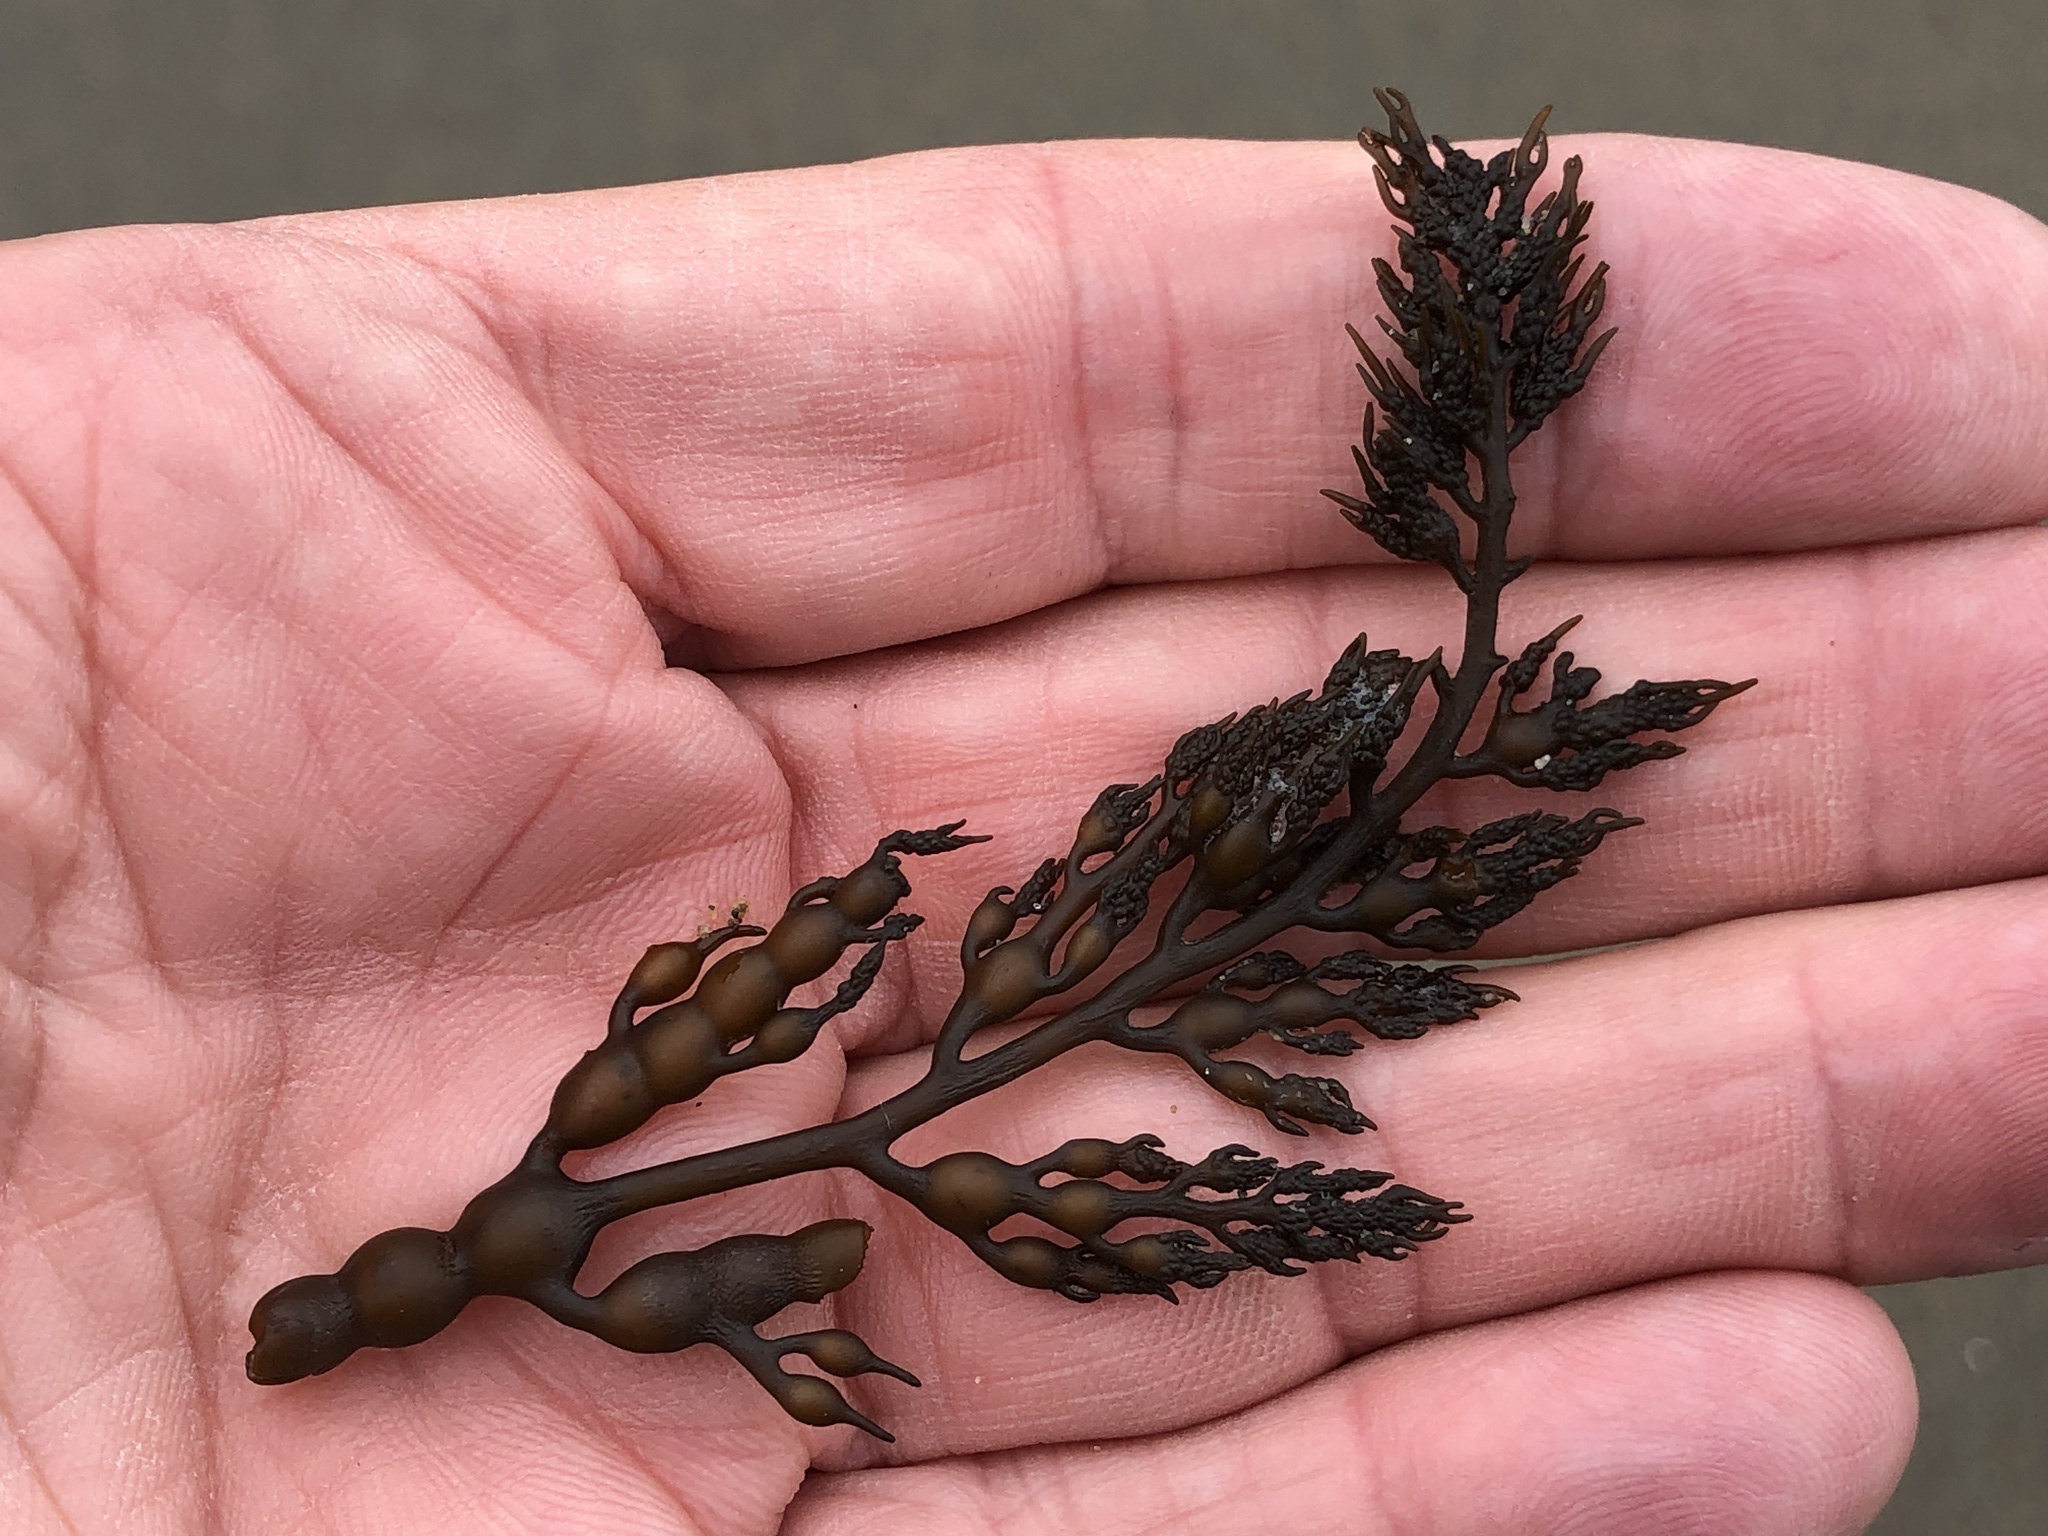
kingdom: Chromista
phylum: Ochrophyta
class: Phaeophyceae
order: Fucales
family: Sargassaceae
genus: Stephanocystis
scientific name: Stephanocystis
